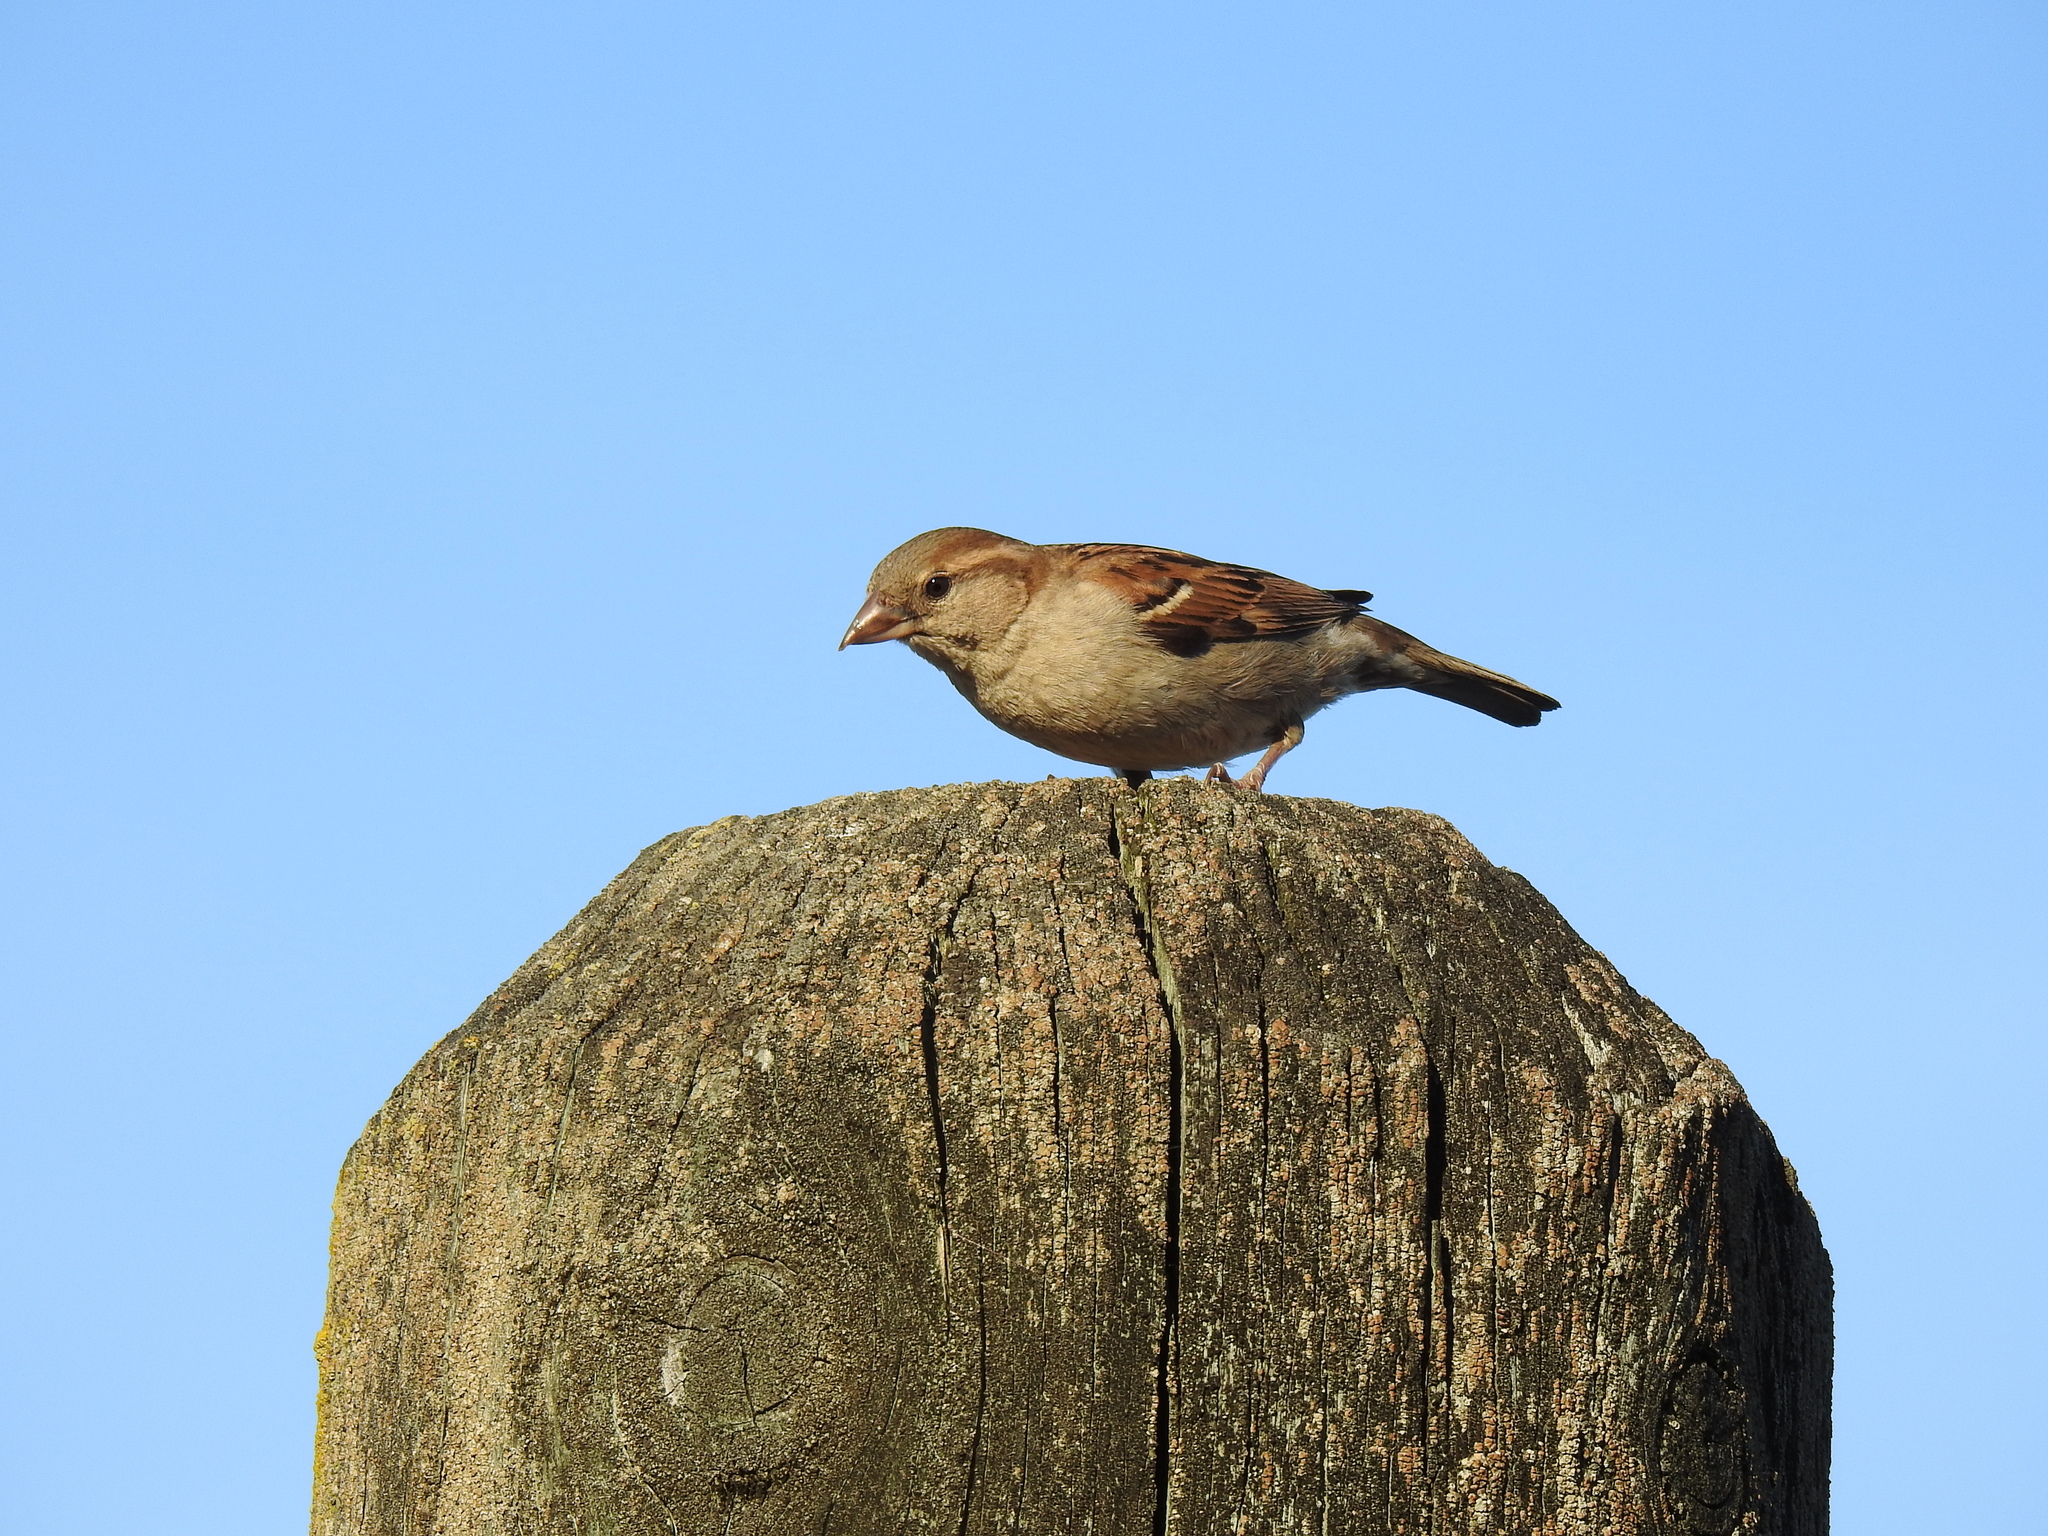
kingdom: Animalia
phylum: Chordata
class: Aves
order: Passeriformes
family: Passeridae
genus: Passer
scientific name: Passer domesticus
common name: House sparrow
